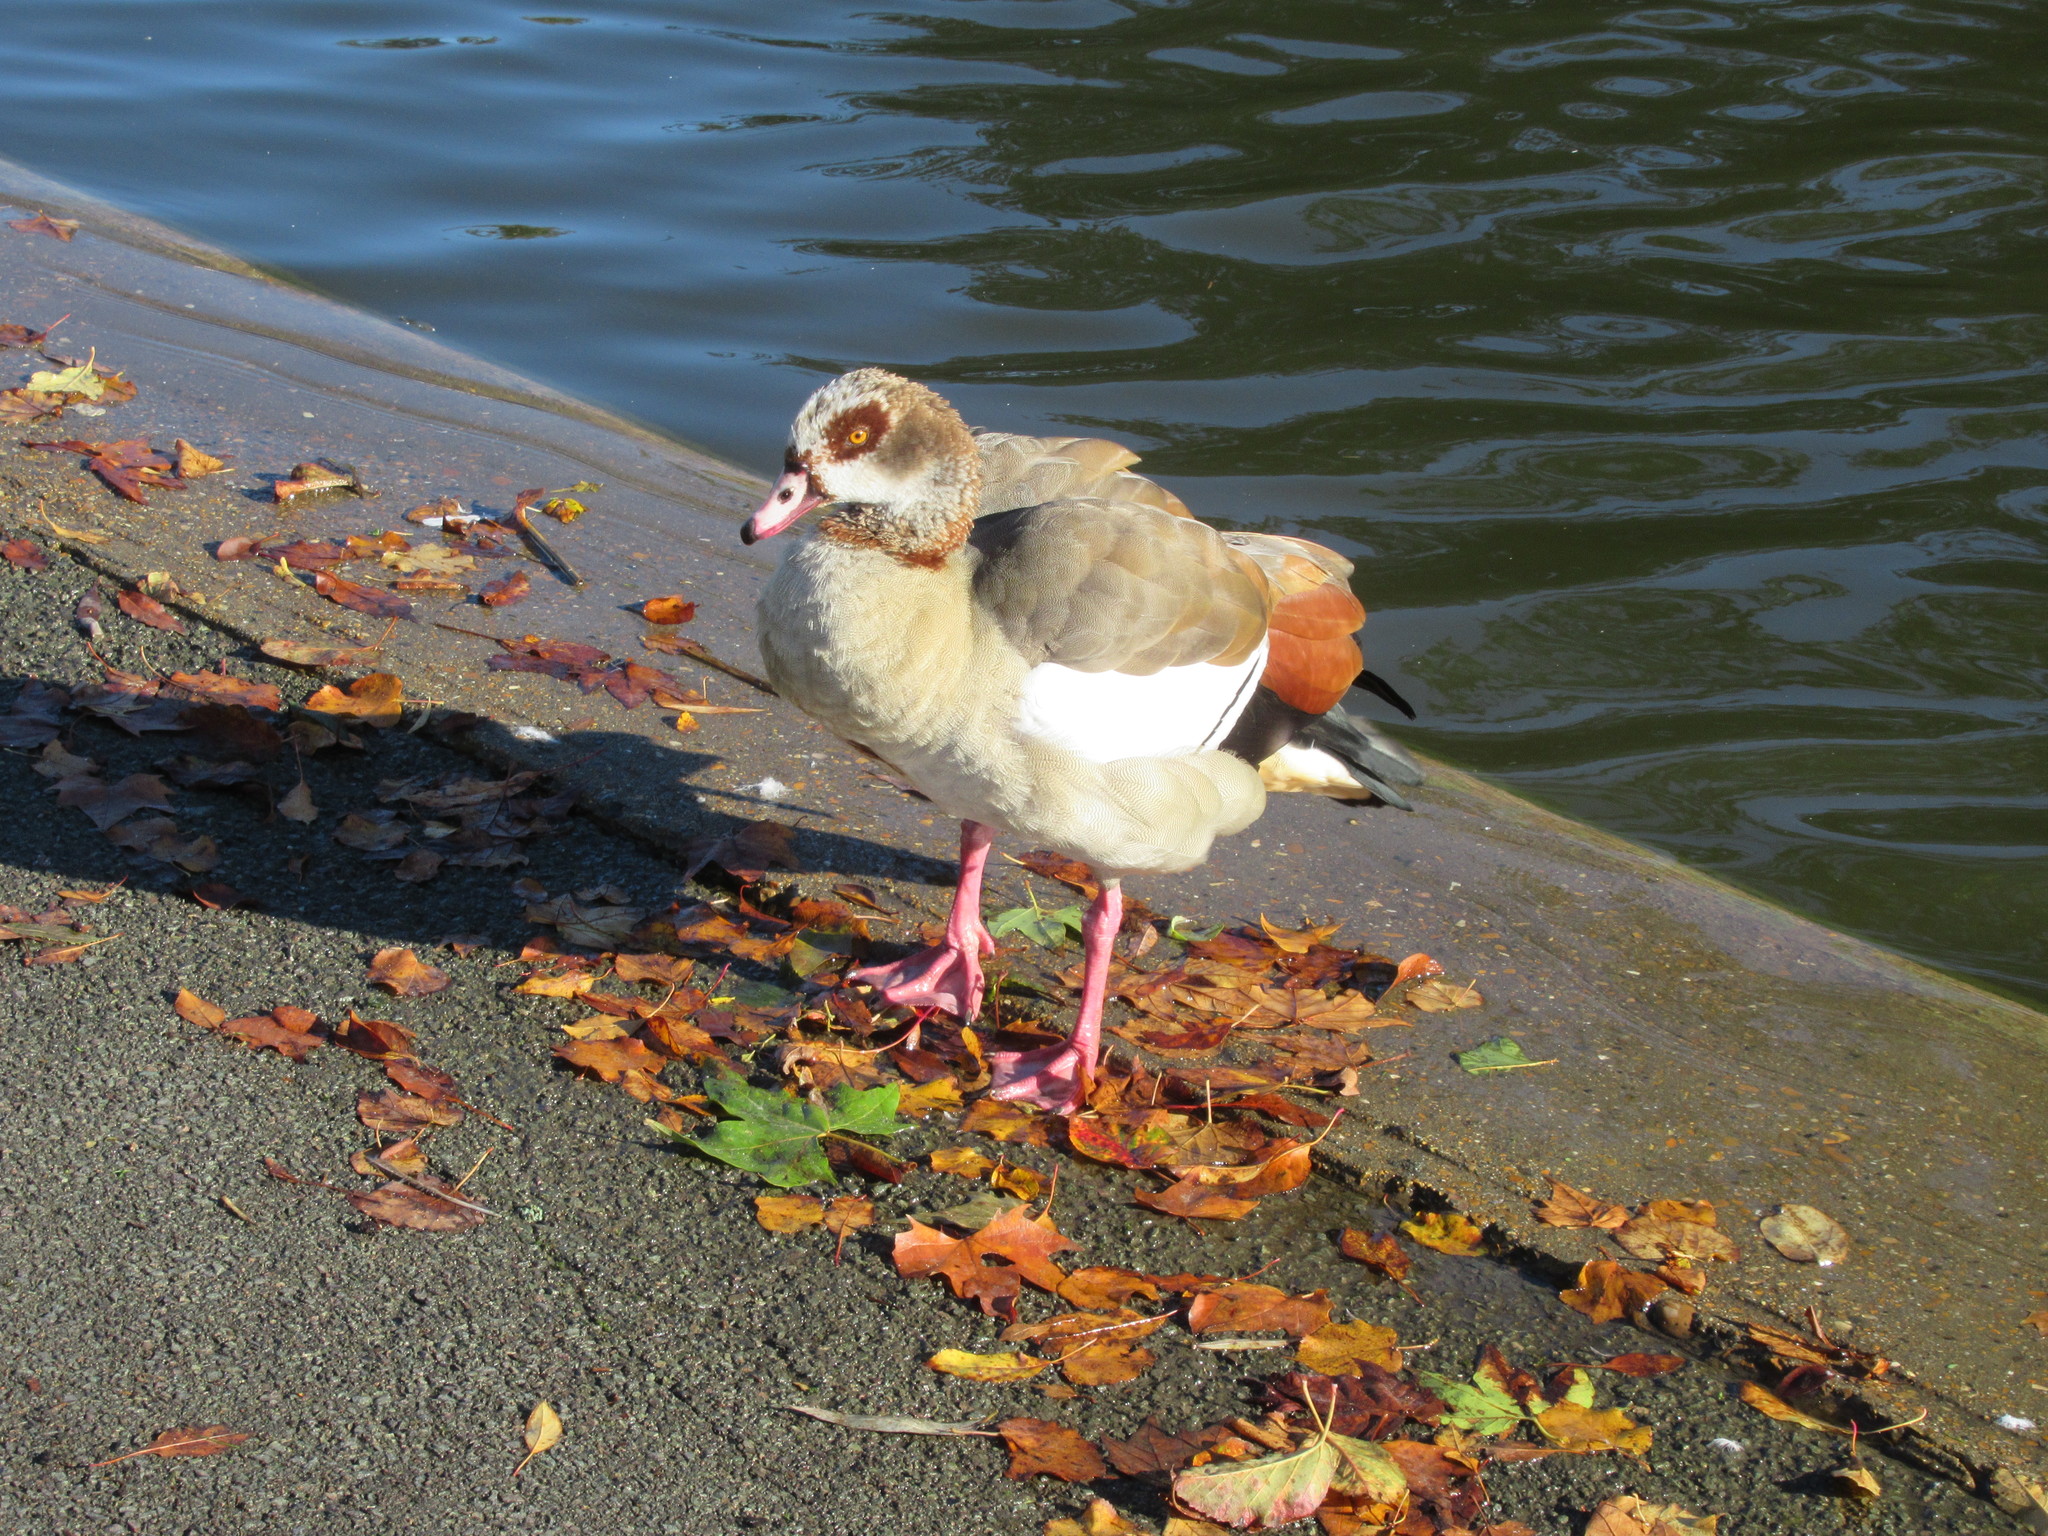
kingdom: Animalia
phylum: Chordata
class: Aves
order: Anseriformes
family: Anatidae
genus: Alopochen
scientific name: Alopochen aegyptiaca
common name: Egyptian goose
